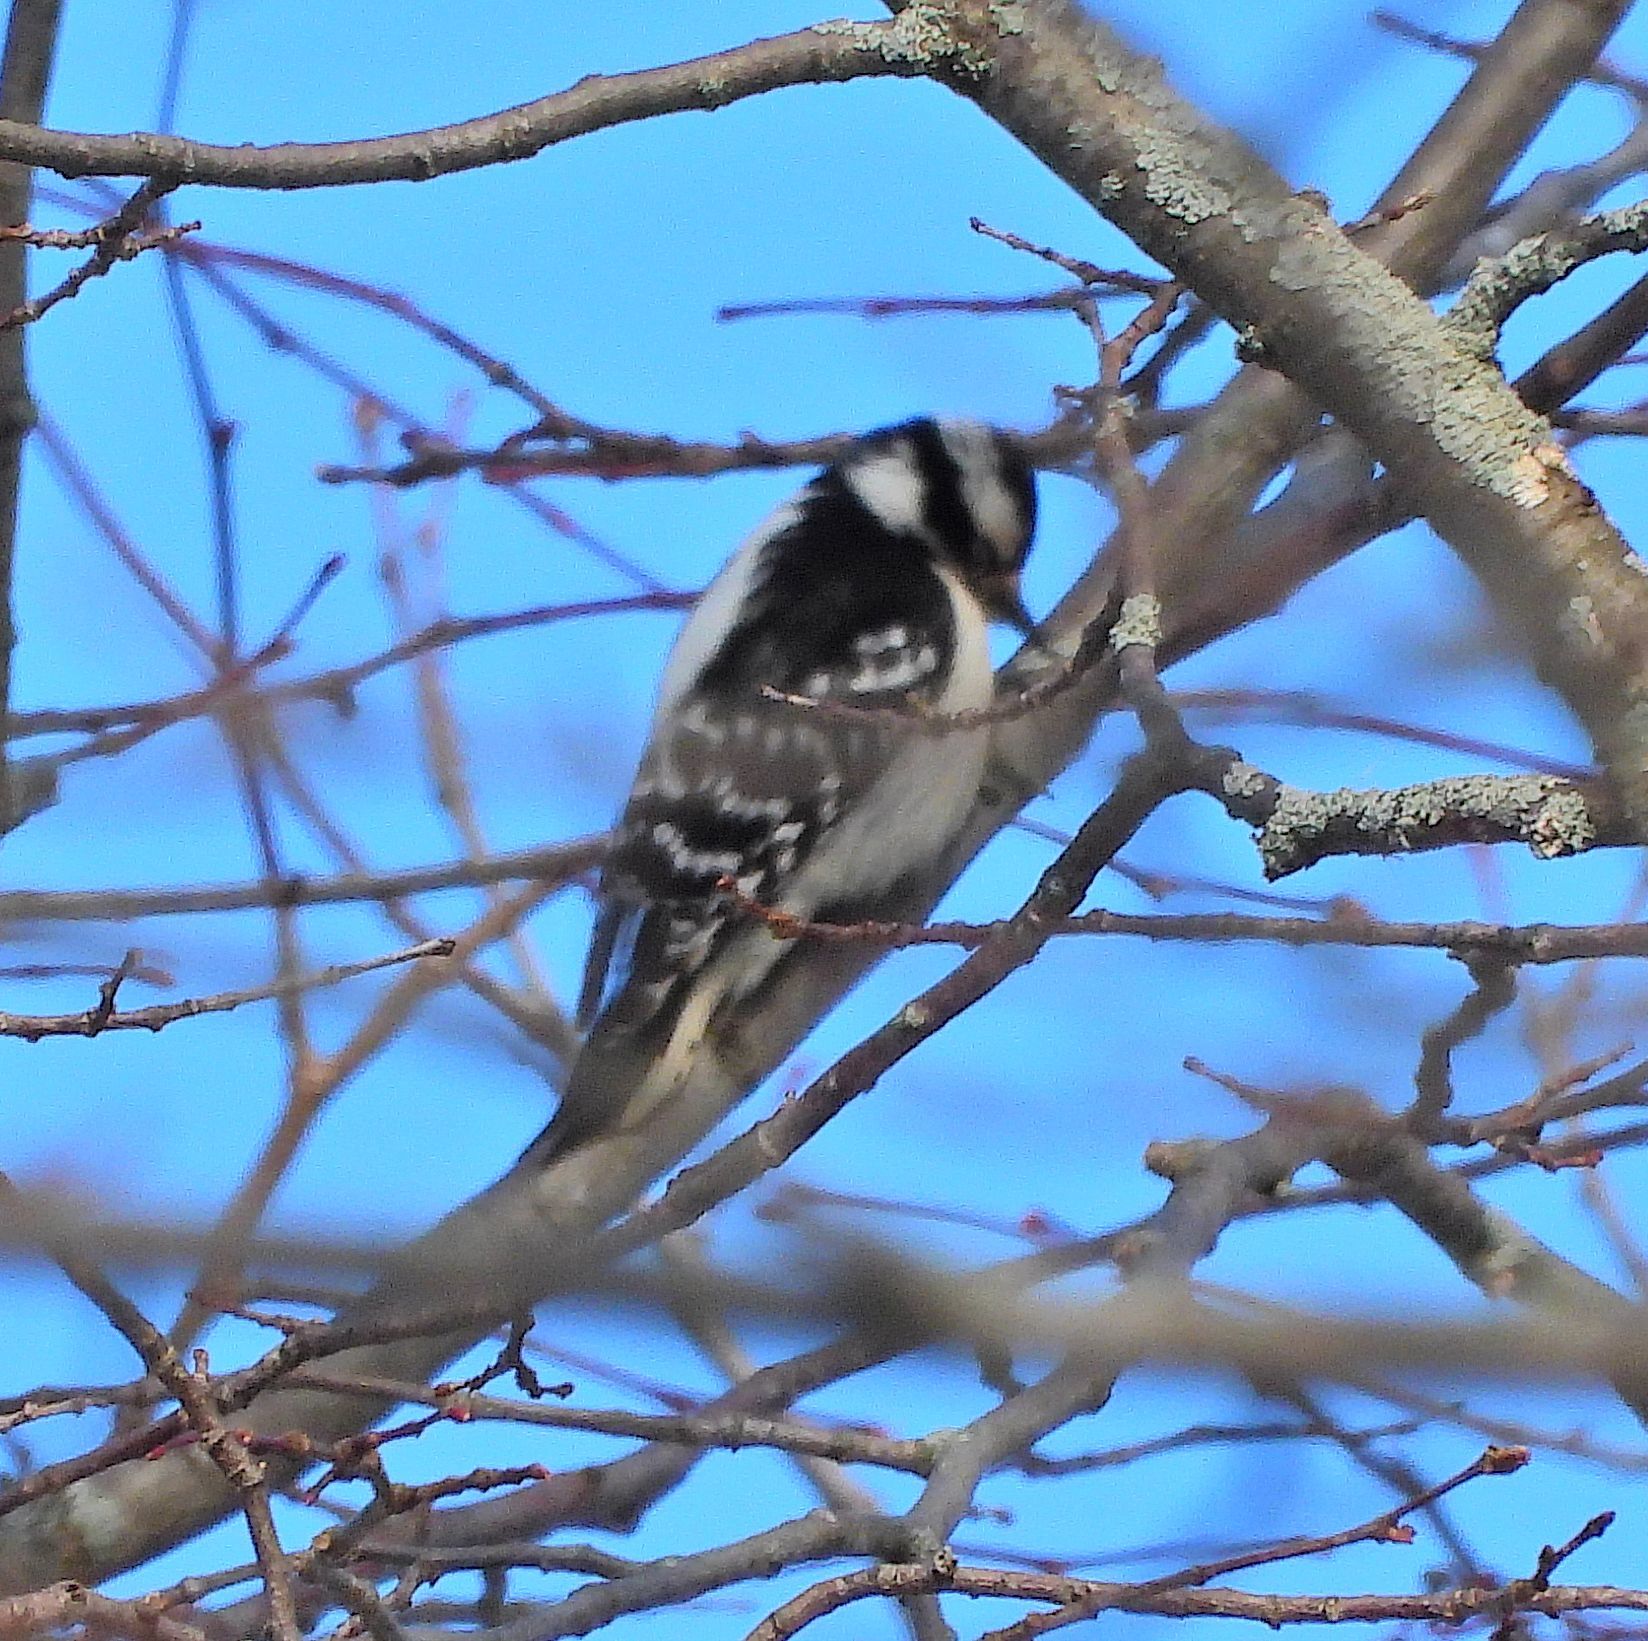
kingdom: Animalia
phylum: Chordata
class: Aves
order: Piciformes
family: Picidae
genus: Dryobates
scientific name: Dryobates pubescens
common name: Downy woodpecker
